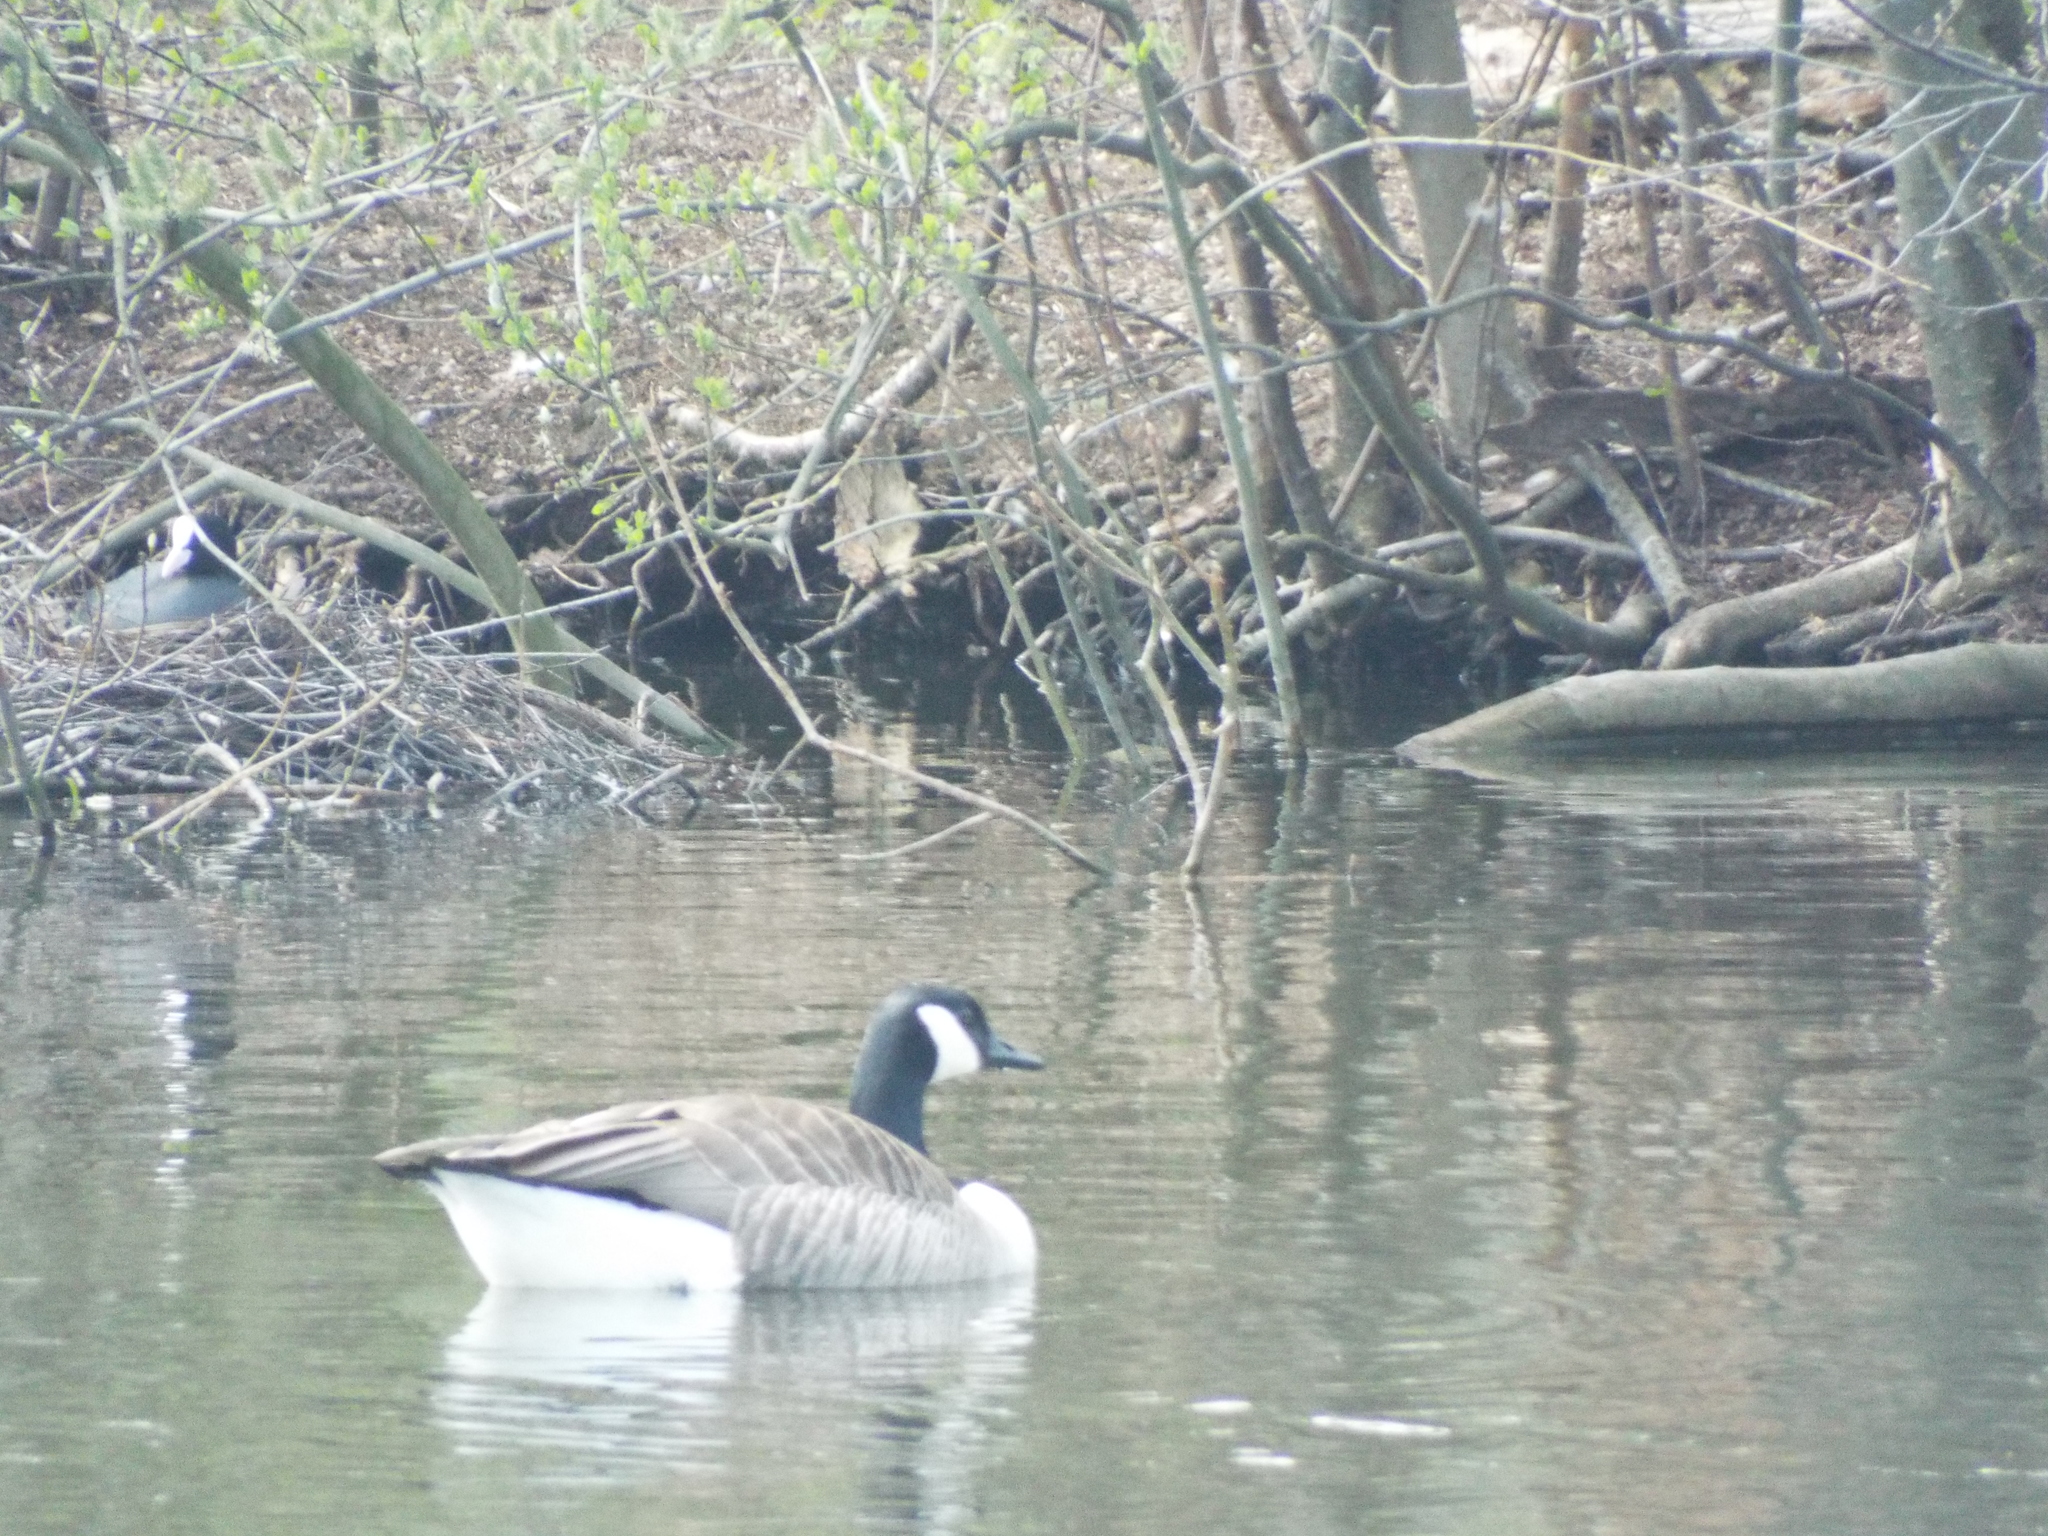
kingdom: Animalia
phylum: Chordata
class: Aves
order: Gruiformes
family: Rallidae
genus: Fulica
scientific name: Fulica atra
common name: Eurasian coot
